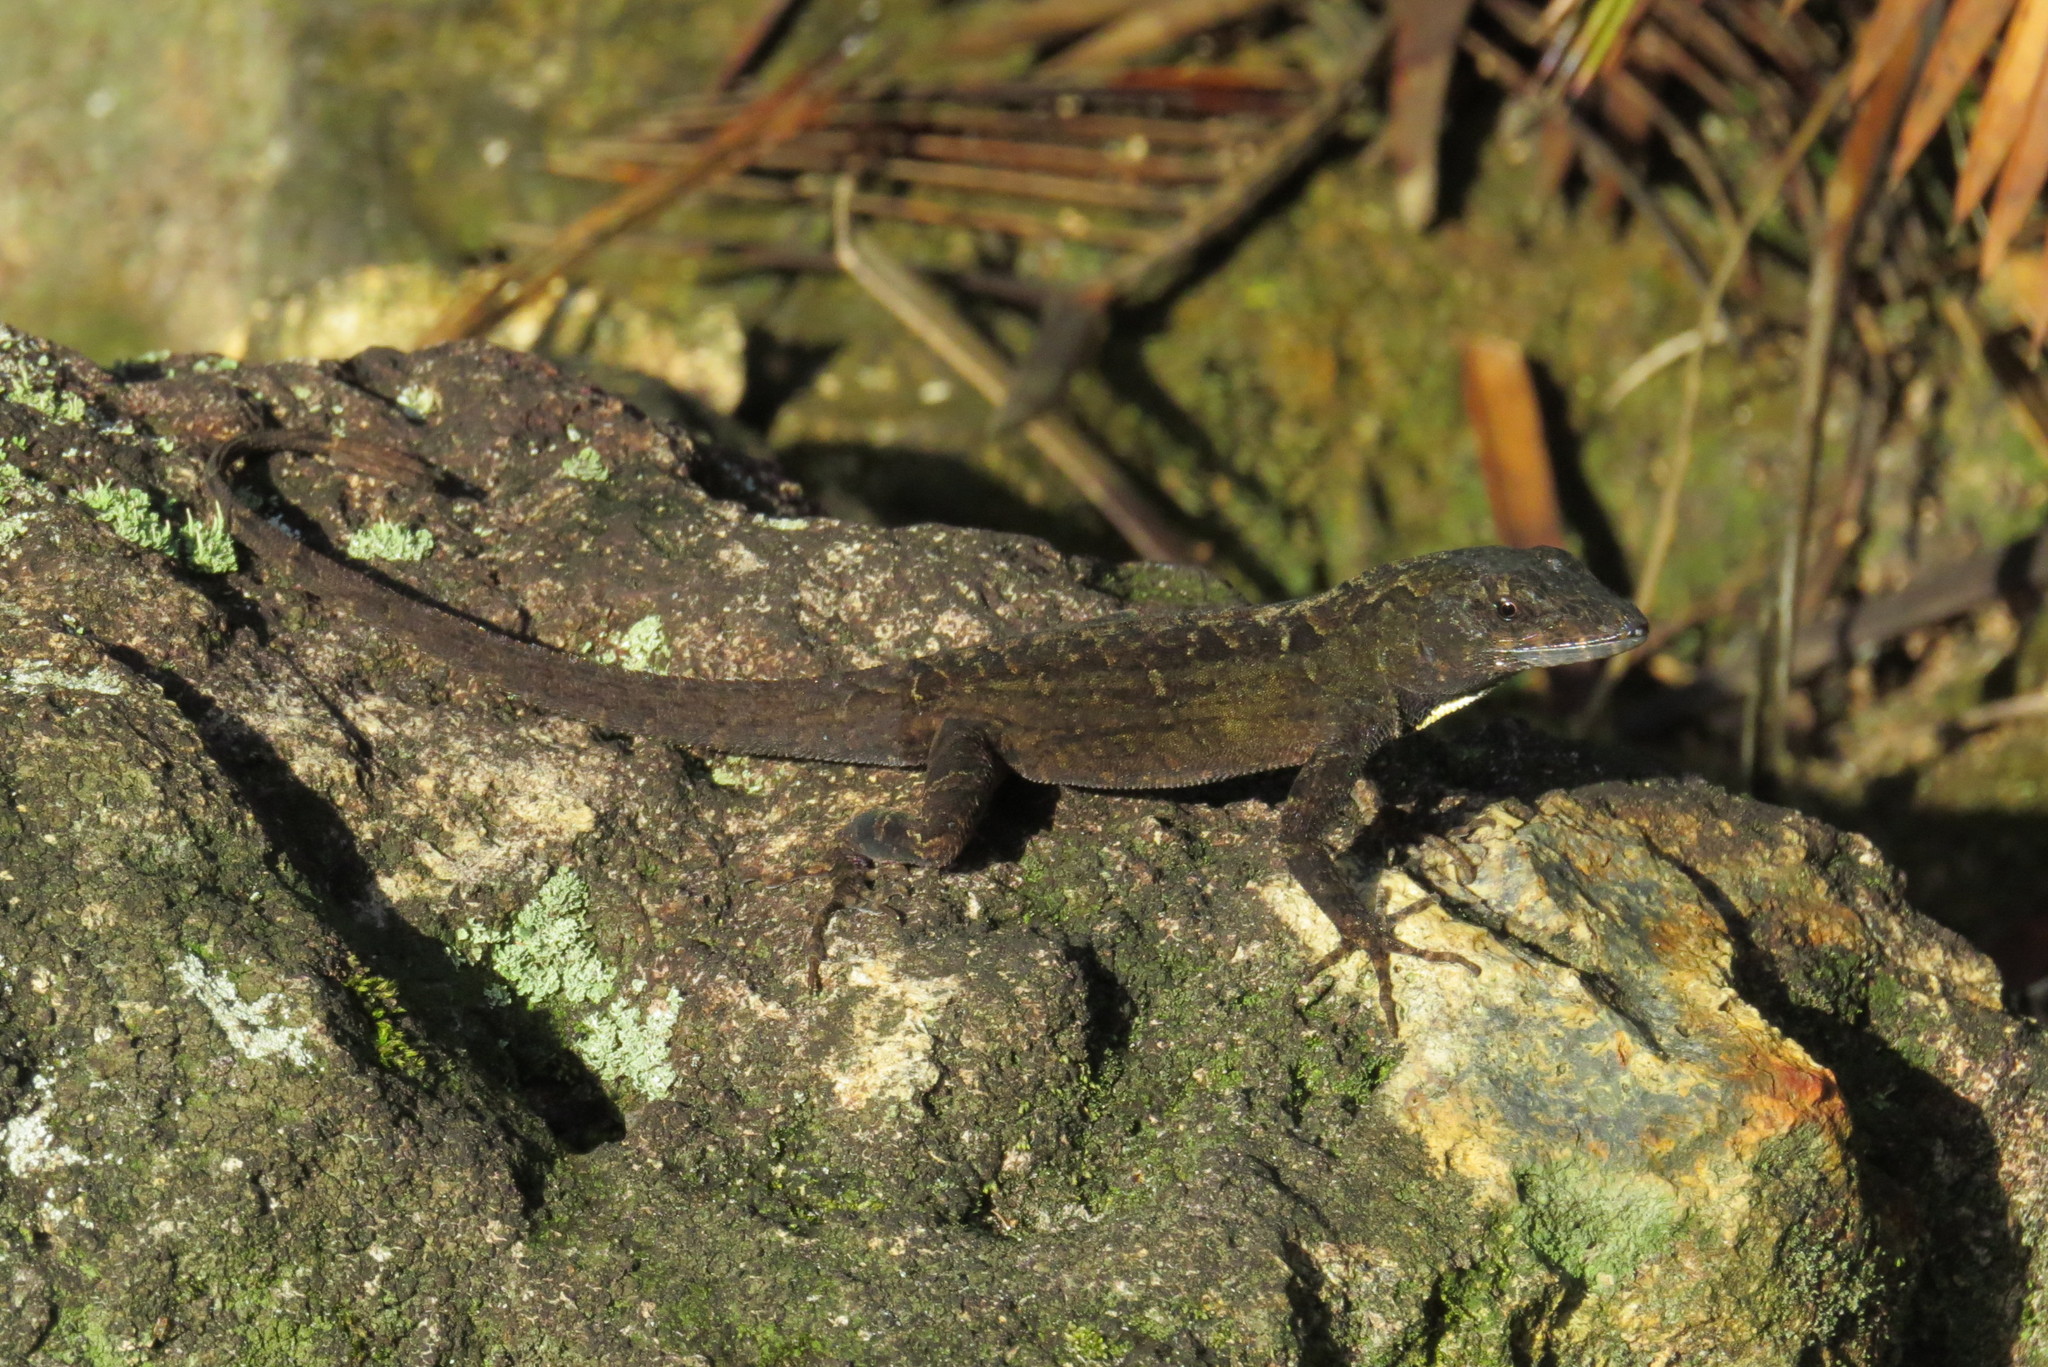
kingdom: Animalia
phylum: Chordata
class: Squamata
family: Dactyloidae
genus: Anolis
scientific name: Anolis sagrei
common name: Brown anole
